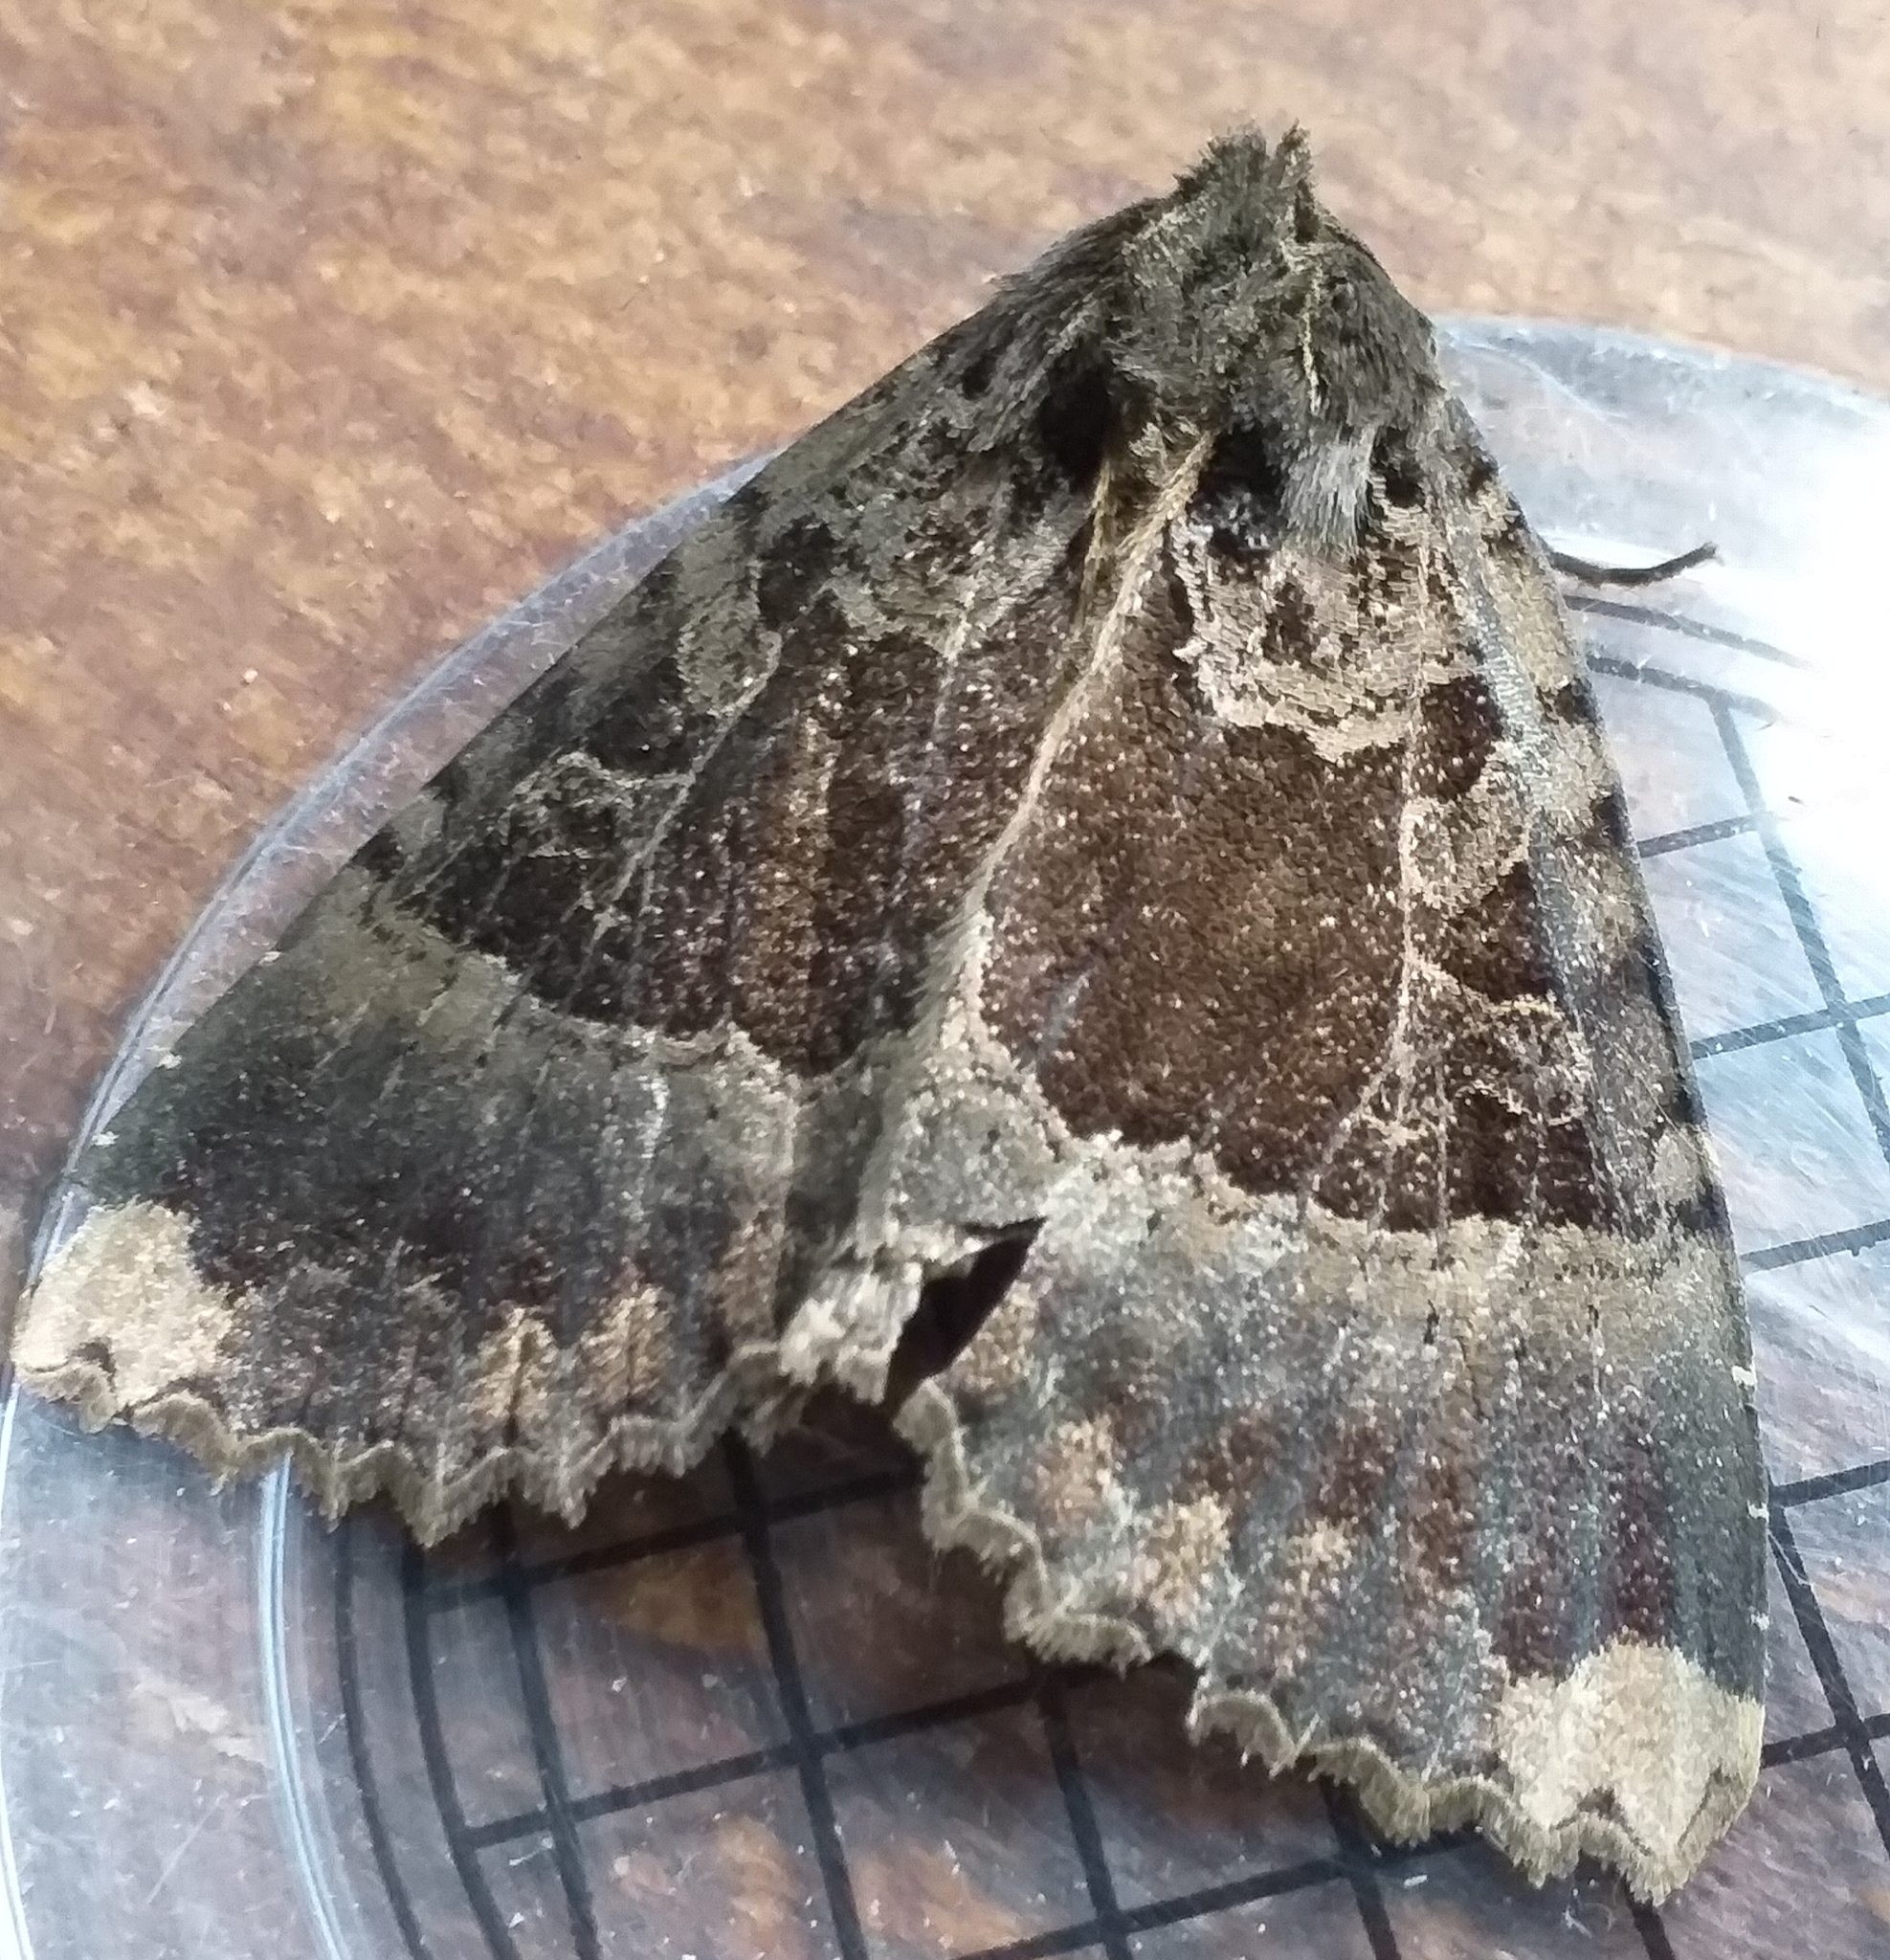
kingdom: Animalia
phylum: Arthropoda
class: Insecta
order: Lepidoptera
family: Noctuidae
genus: Mormo
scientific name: Mormo maura
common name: Old lady
